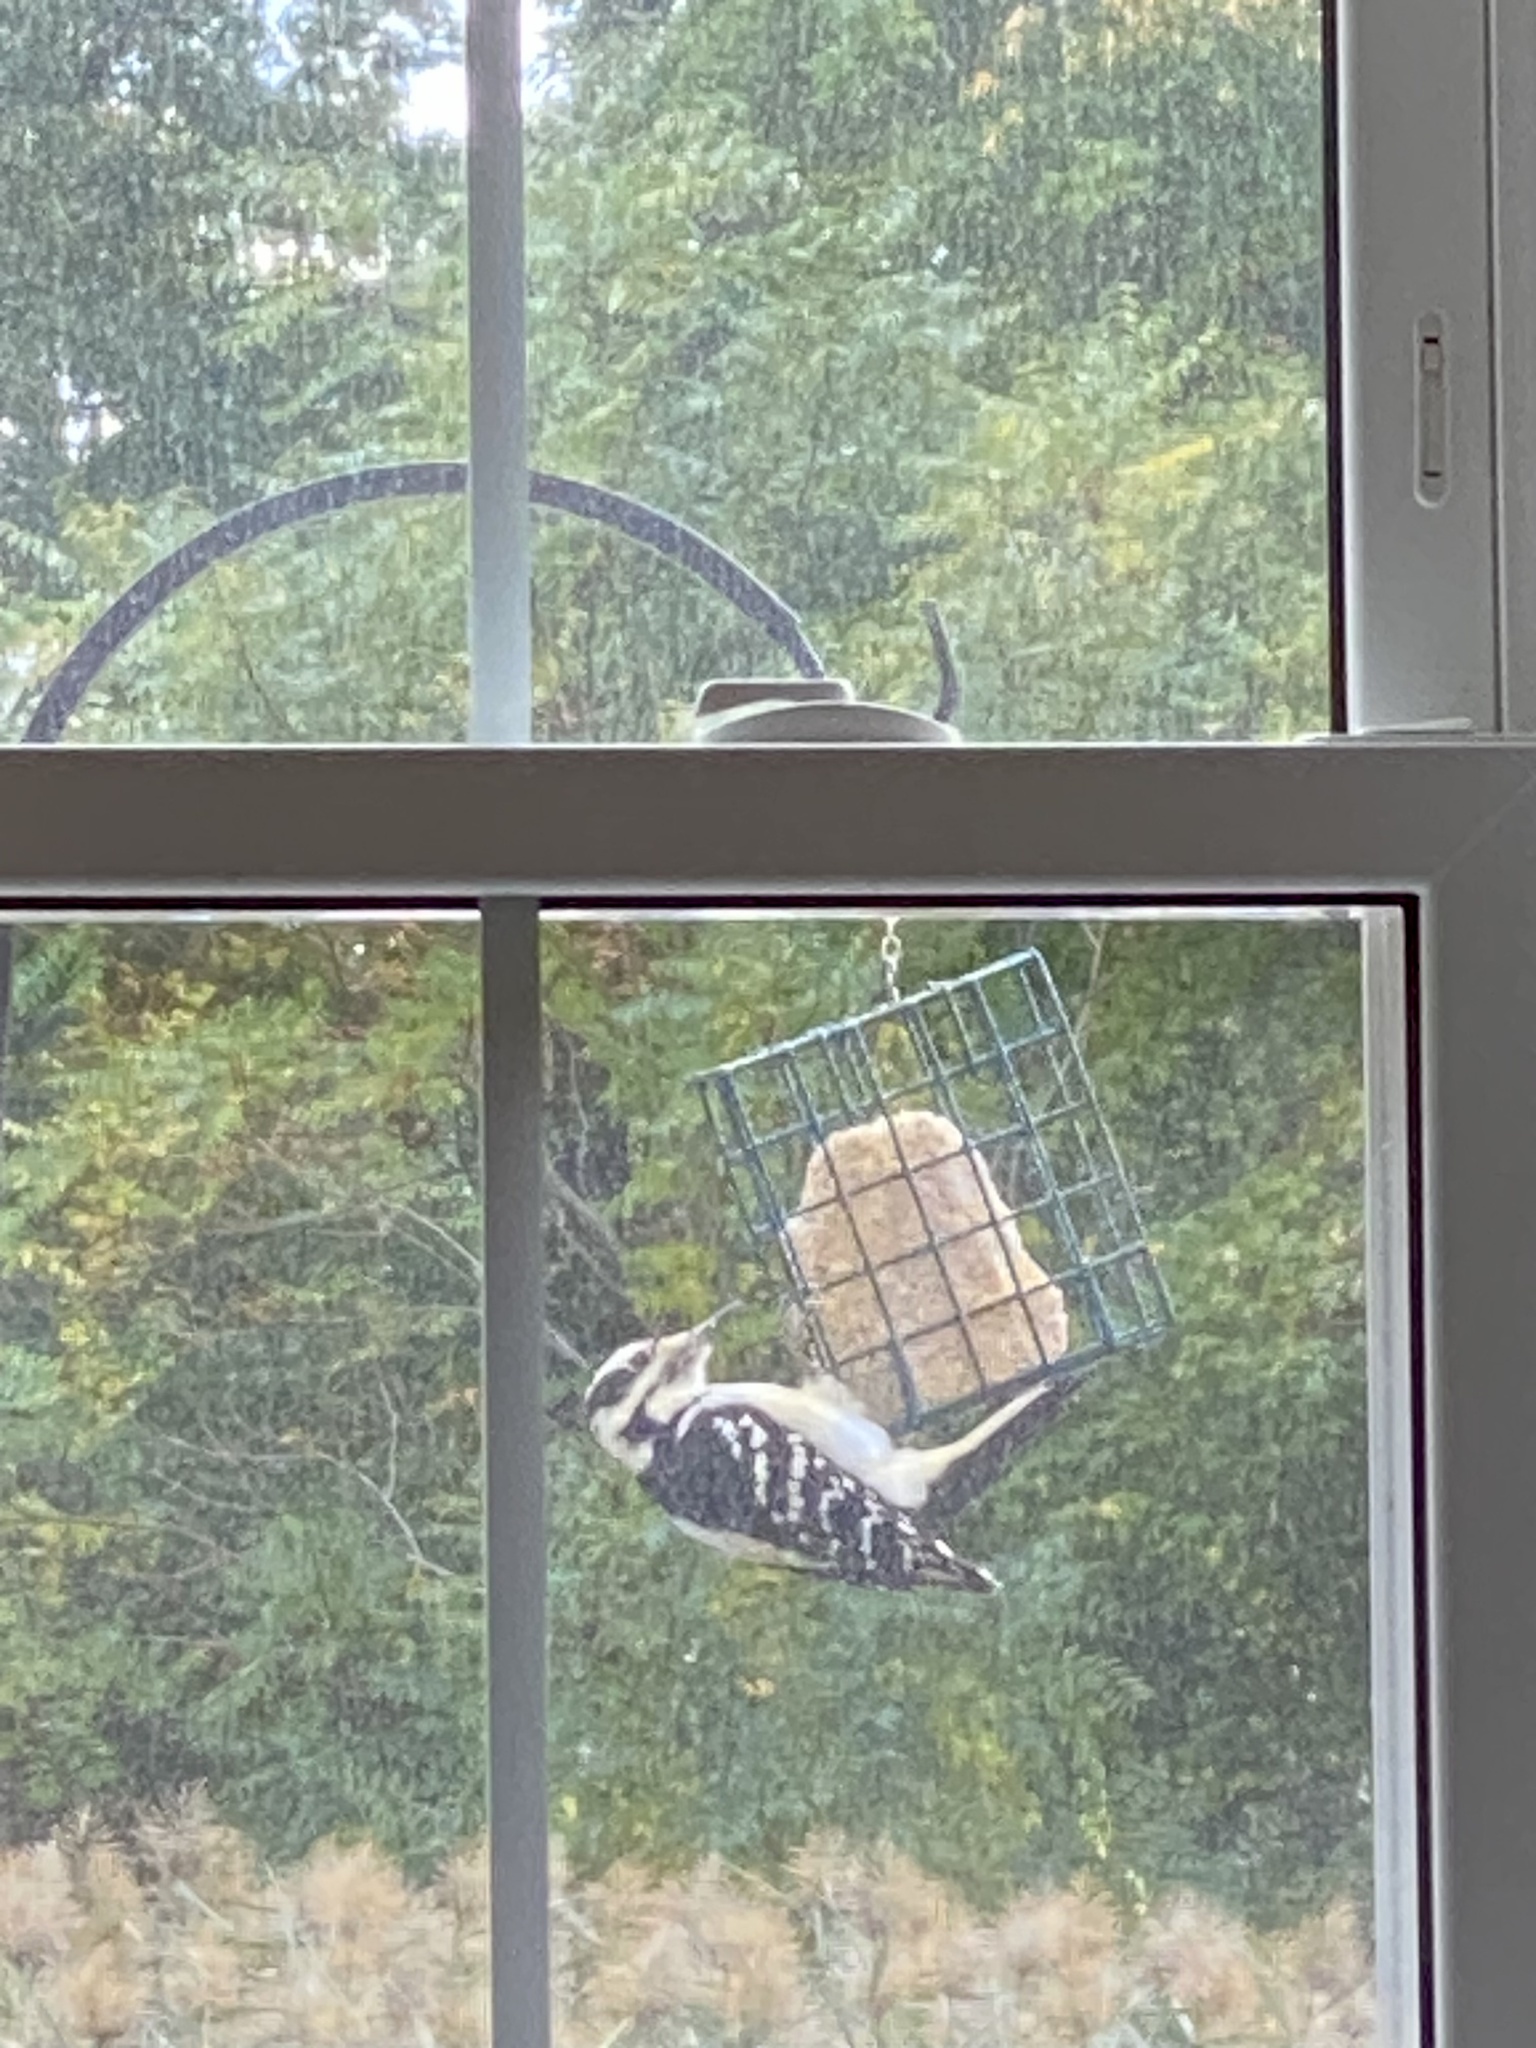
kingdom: Animalia
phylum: Chordata
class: Aves
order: Piciformes
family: Picidae
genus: Leuconotopicus
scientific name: Leuconotopicus villosus
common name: Hairy woodpecker
